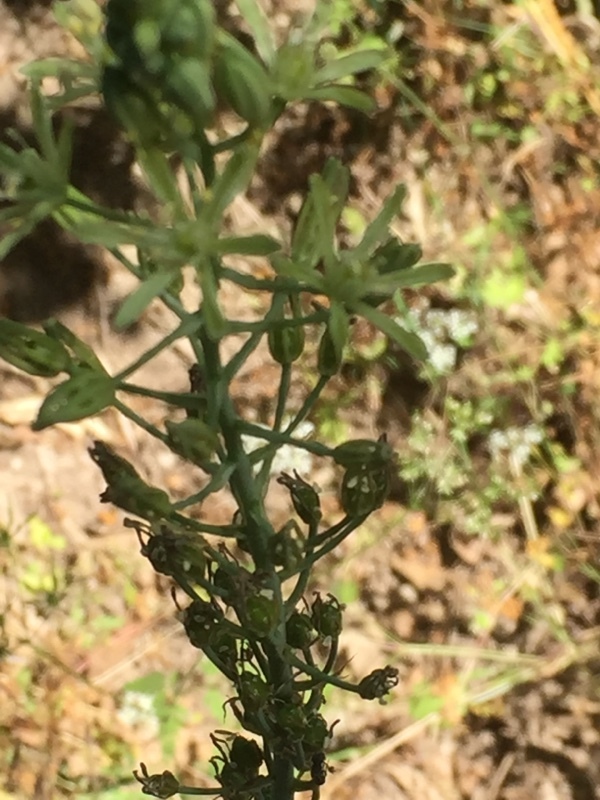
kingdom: Plantae
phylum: Tracheophyta
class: Liliopsida
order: Asparagales
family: Asparagaceae
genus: Ornithogalum
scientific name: Ornithogalum pyrenaicum
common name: Spiked star-of-bethlehem
